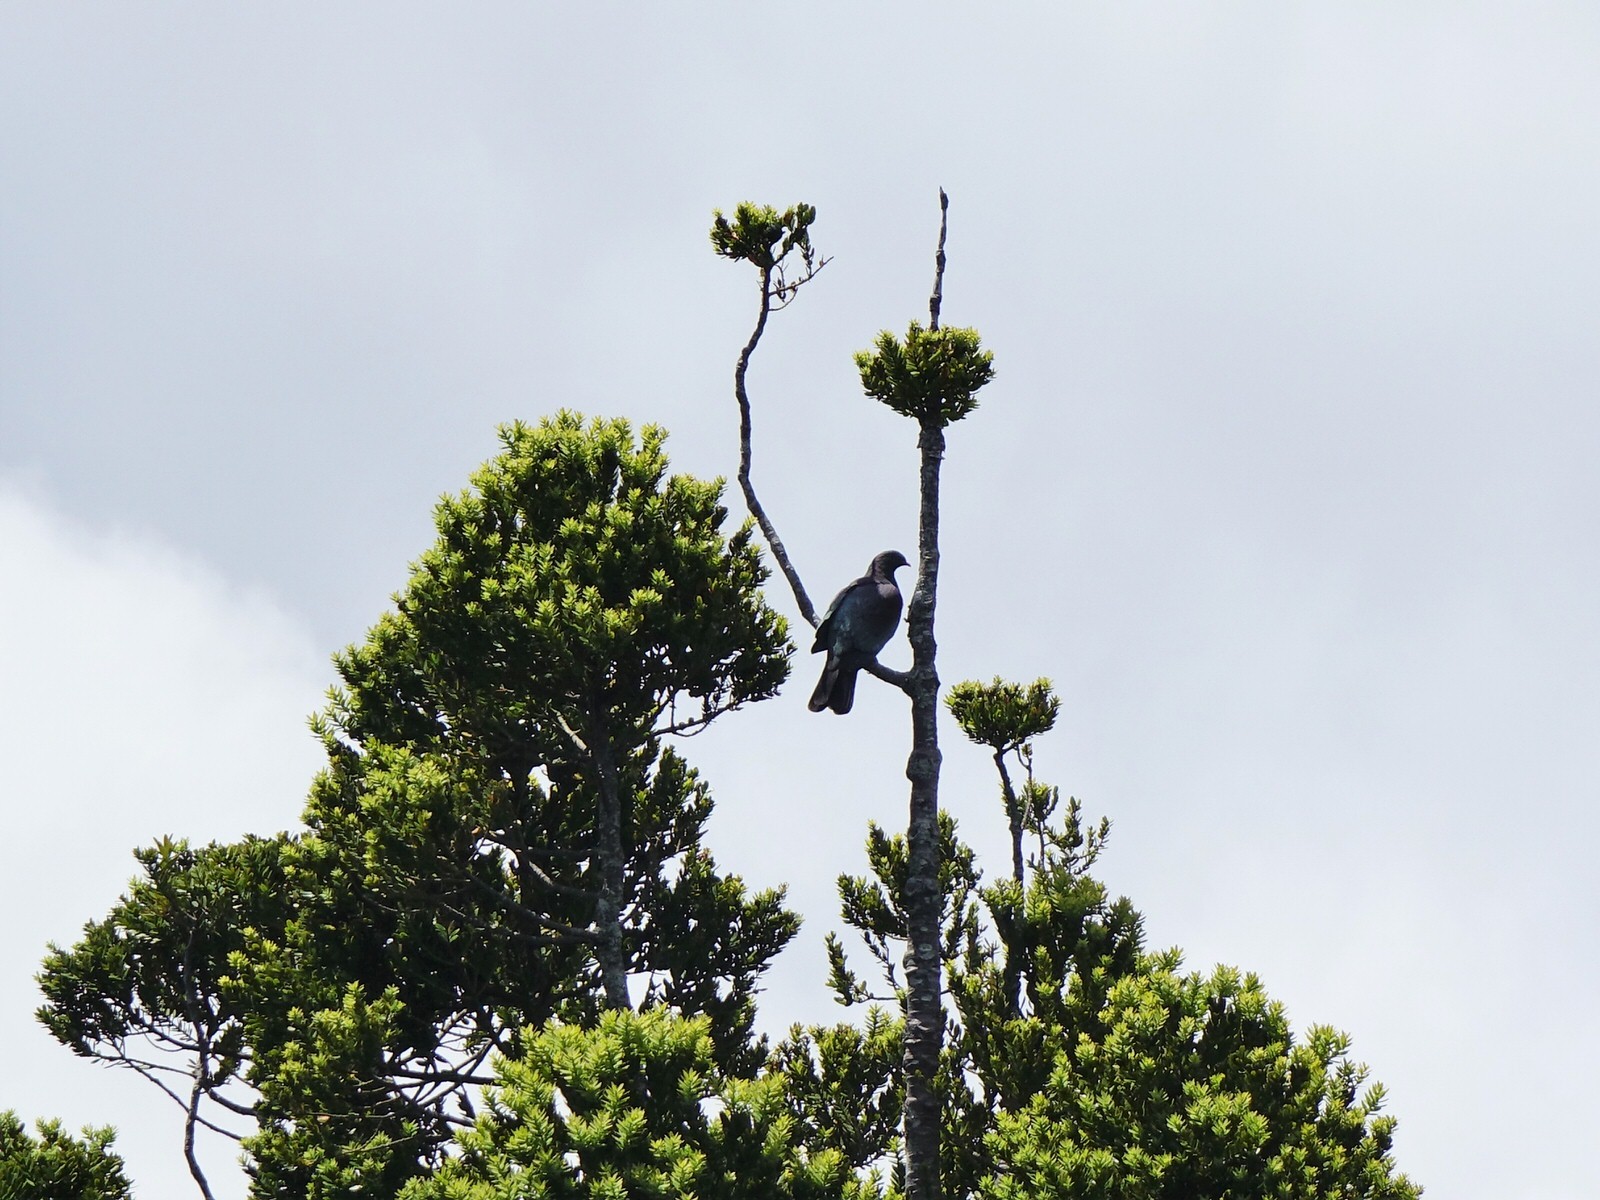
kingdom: Animalia
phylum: Chordata
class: Aves
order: Columbiformes
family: Columbidae
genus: Hemiphaga
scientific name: Hemiphaga novaeseelandiae
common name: New zealand pigeon
